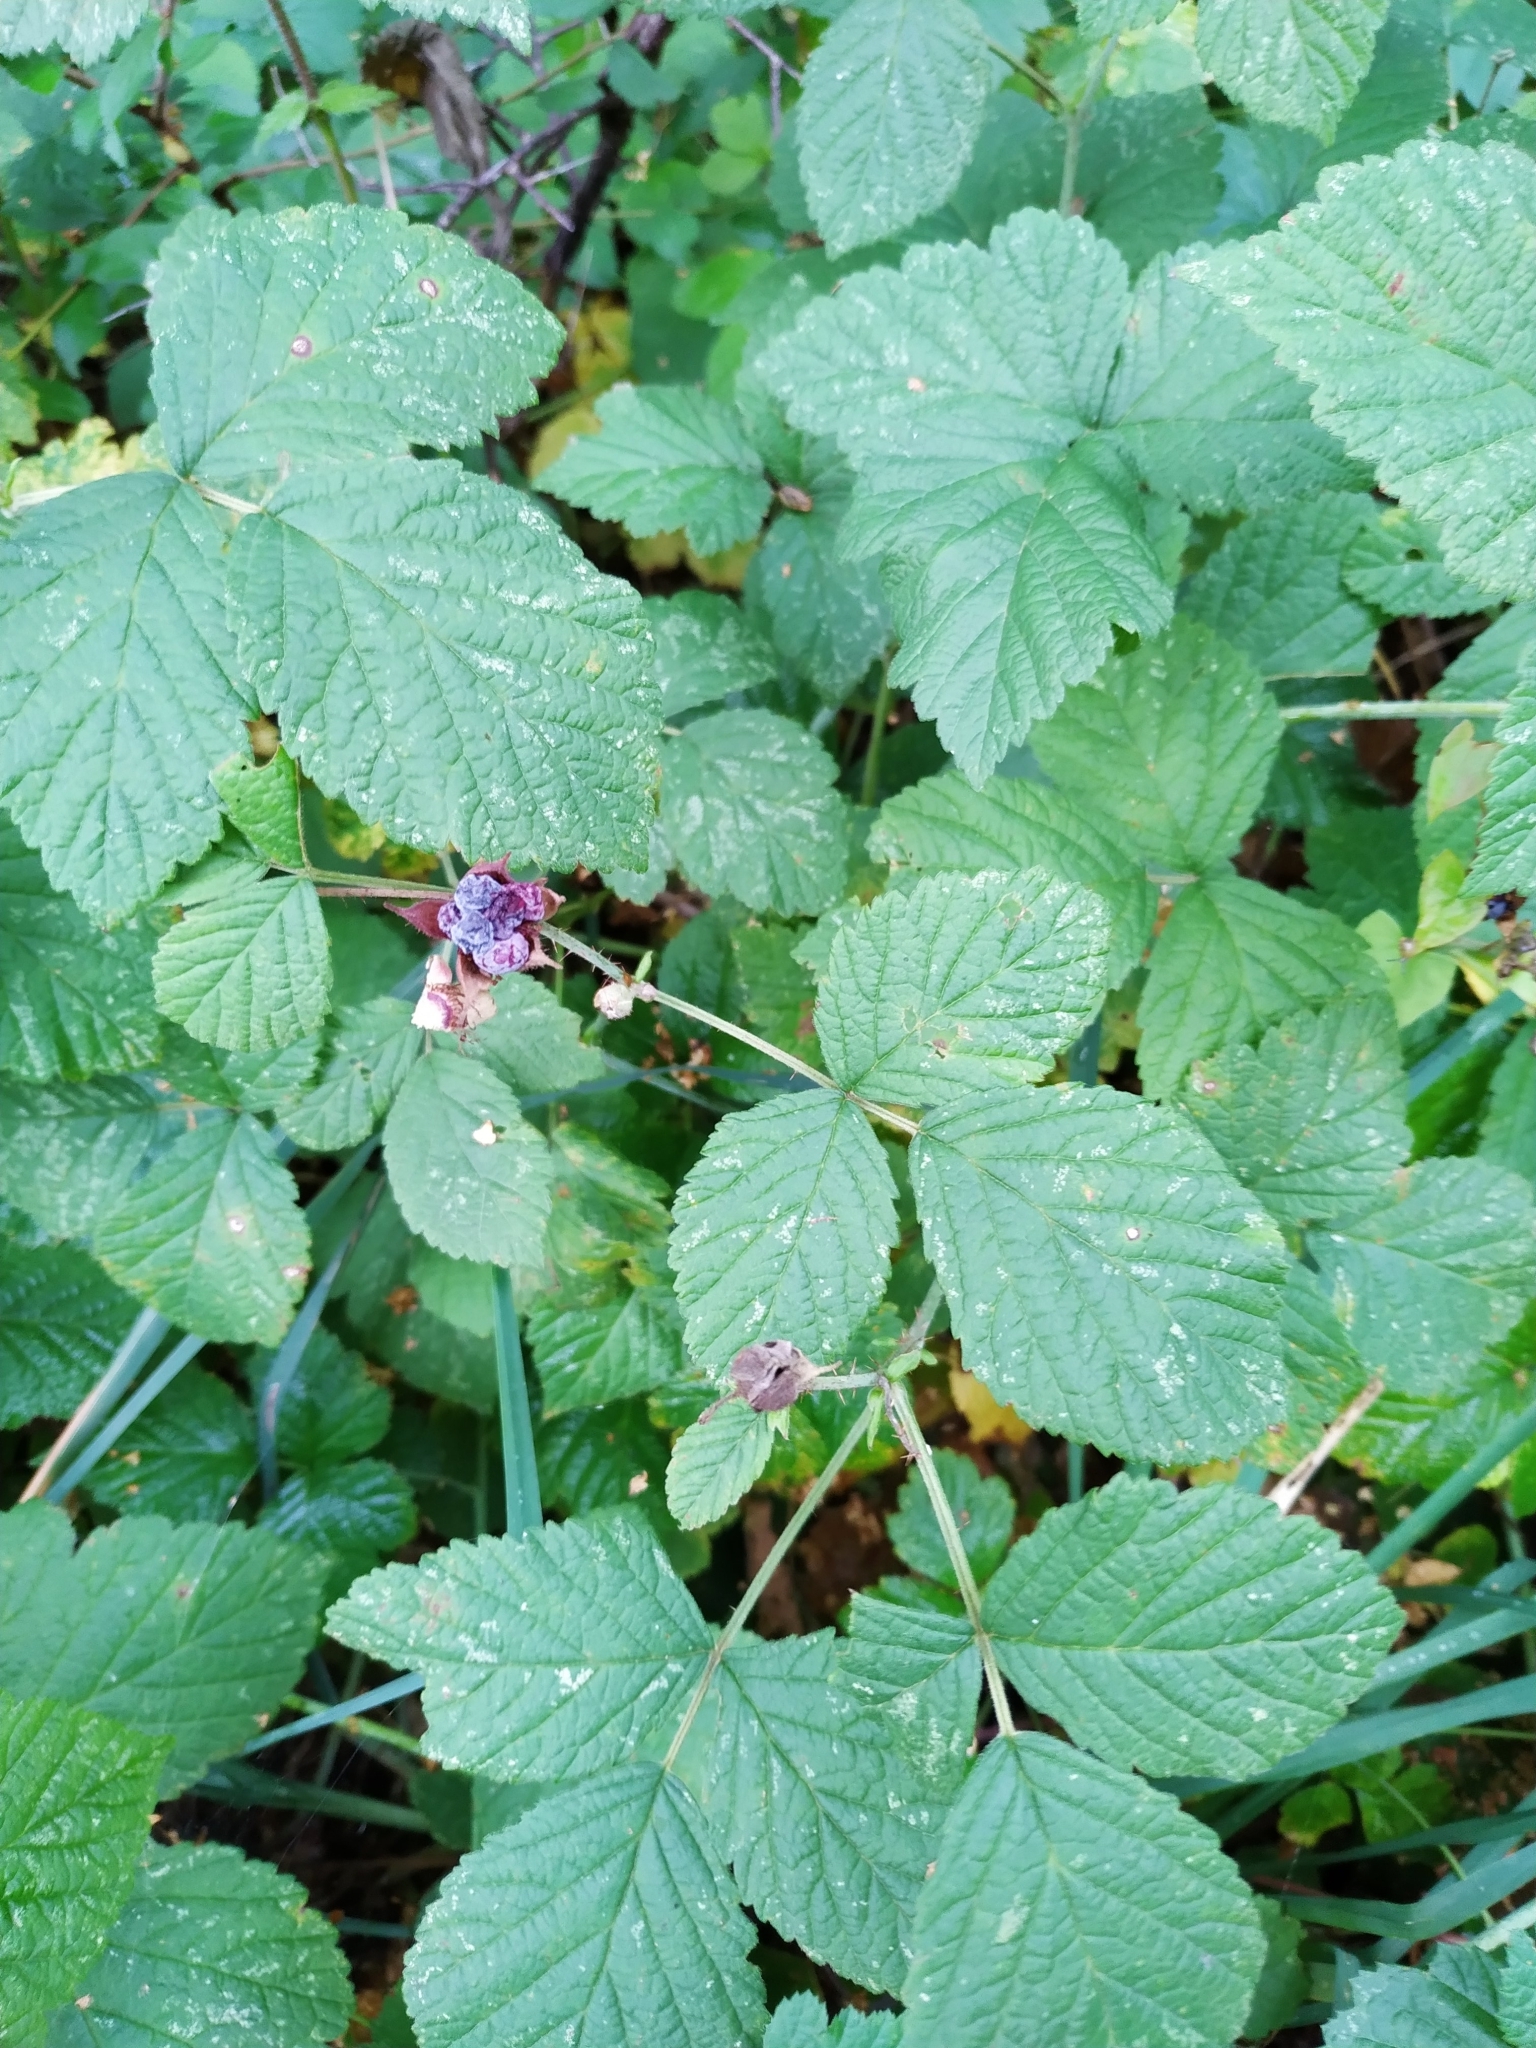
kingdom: Plantae
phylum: Tracheophyta
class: Magnoliopsida
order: Rosales
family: Rosaceae
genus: Rubus
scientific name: Rubus caesius
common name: Dewberry
